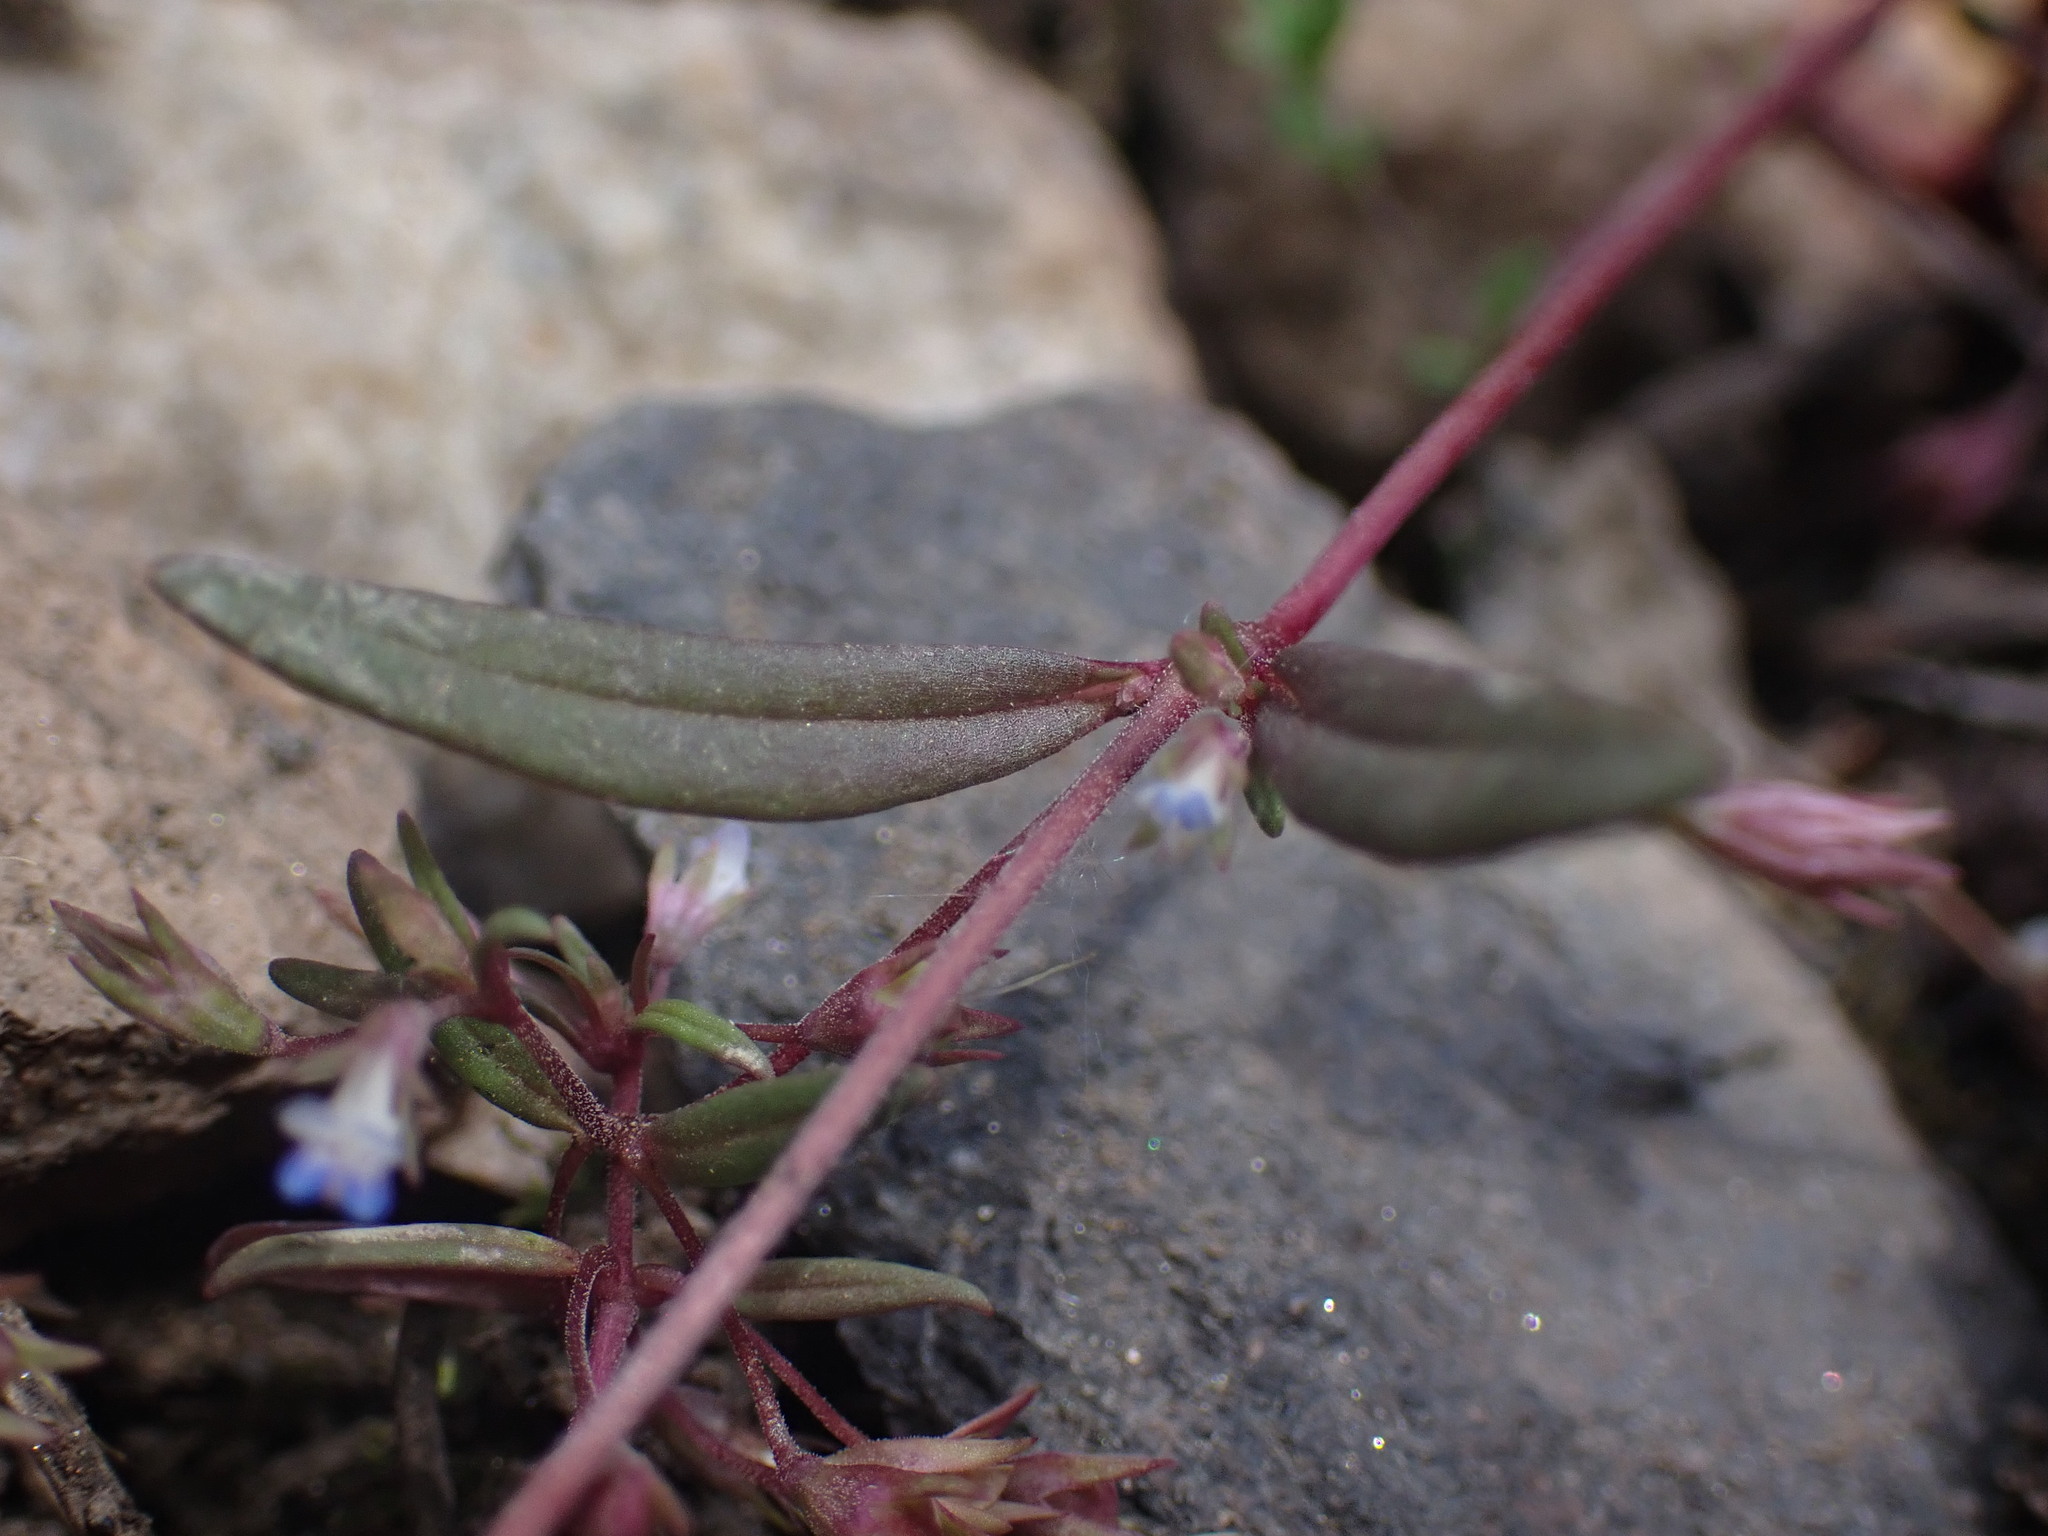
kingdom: Plantae
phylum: Tracheophyta
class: Magnoliopsida
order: Lamiales
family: Plantaginaceae
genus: Collinsia
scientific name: Collinsia parviflora
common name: Blue-lips
